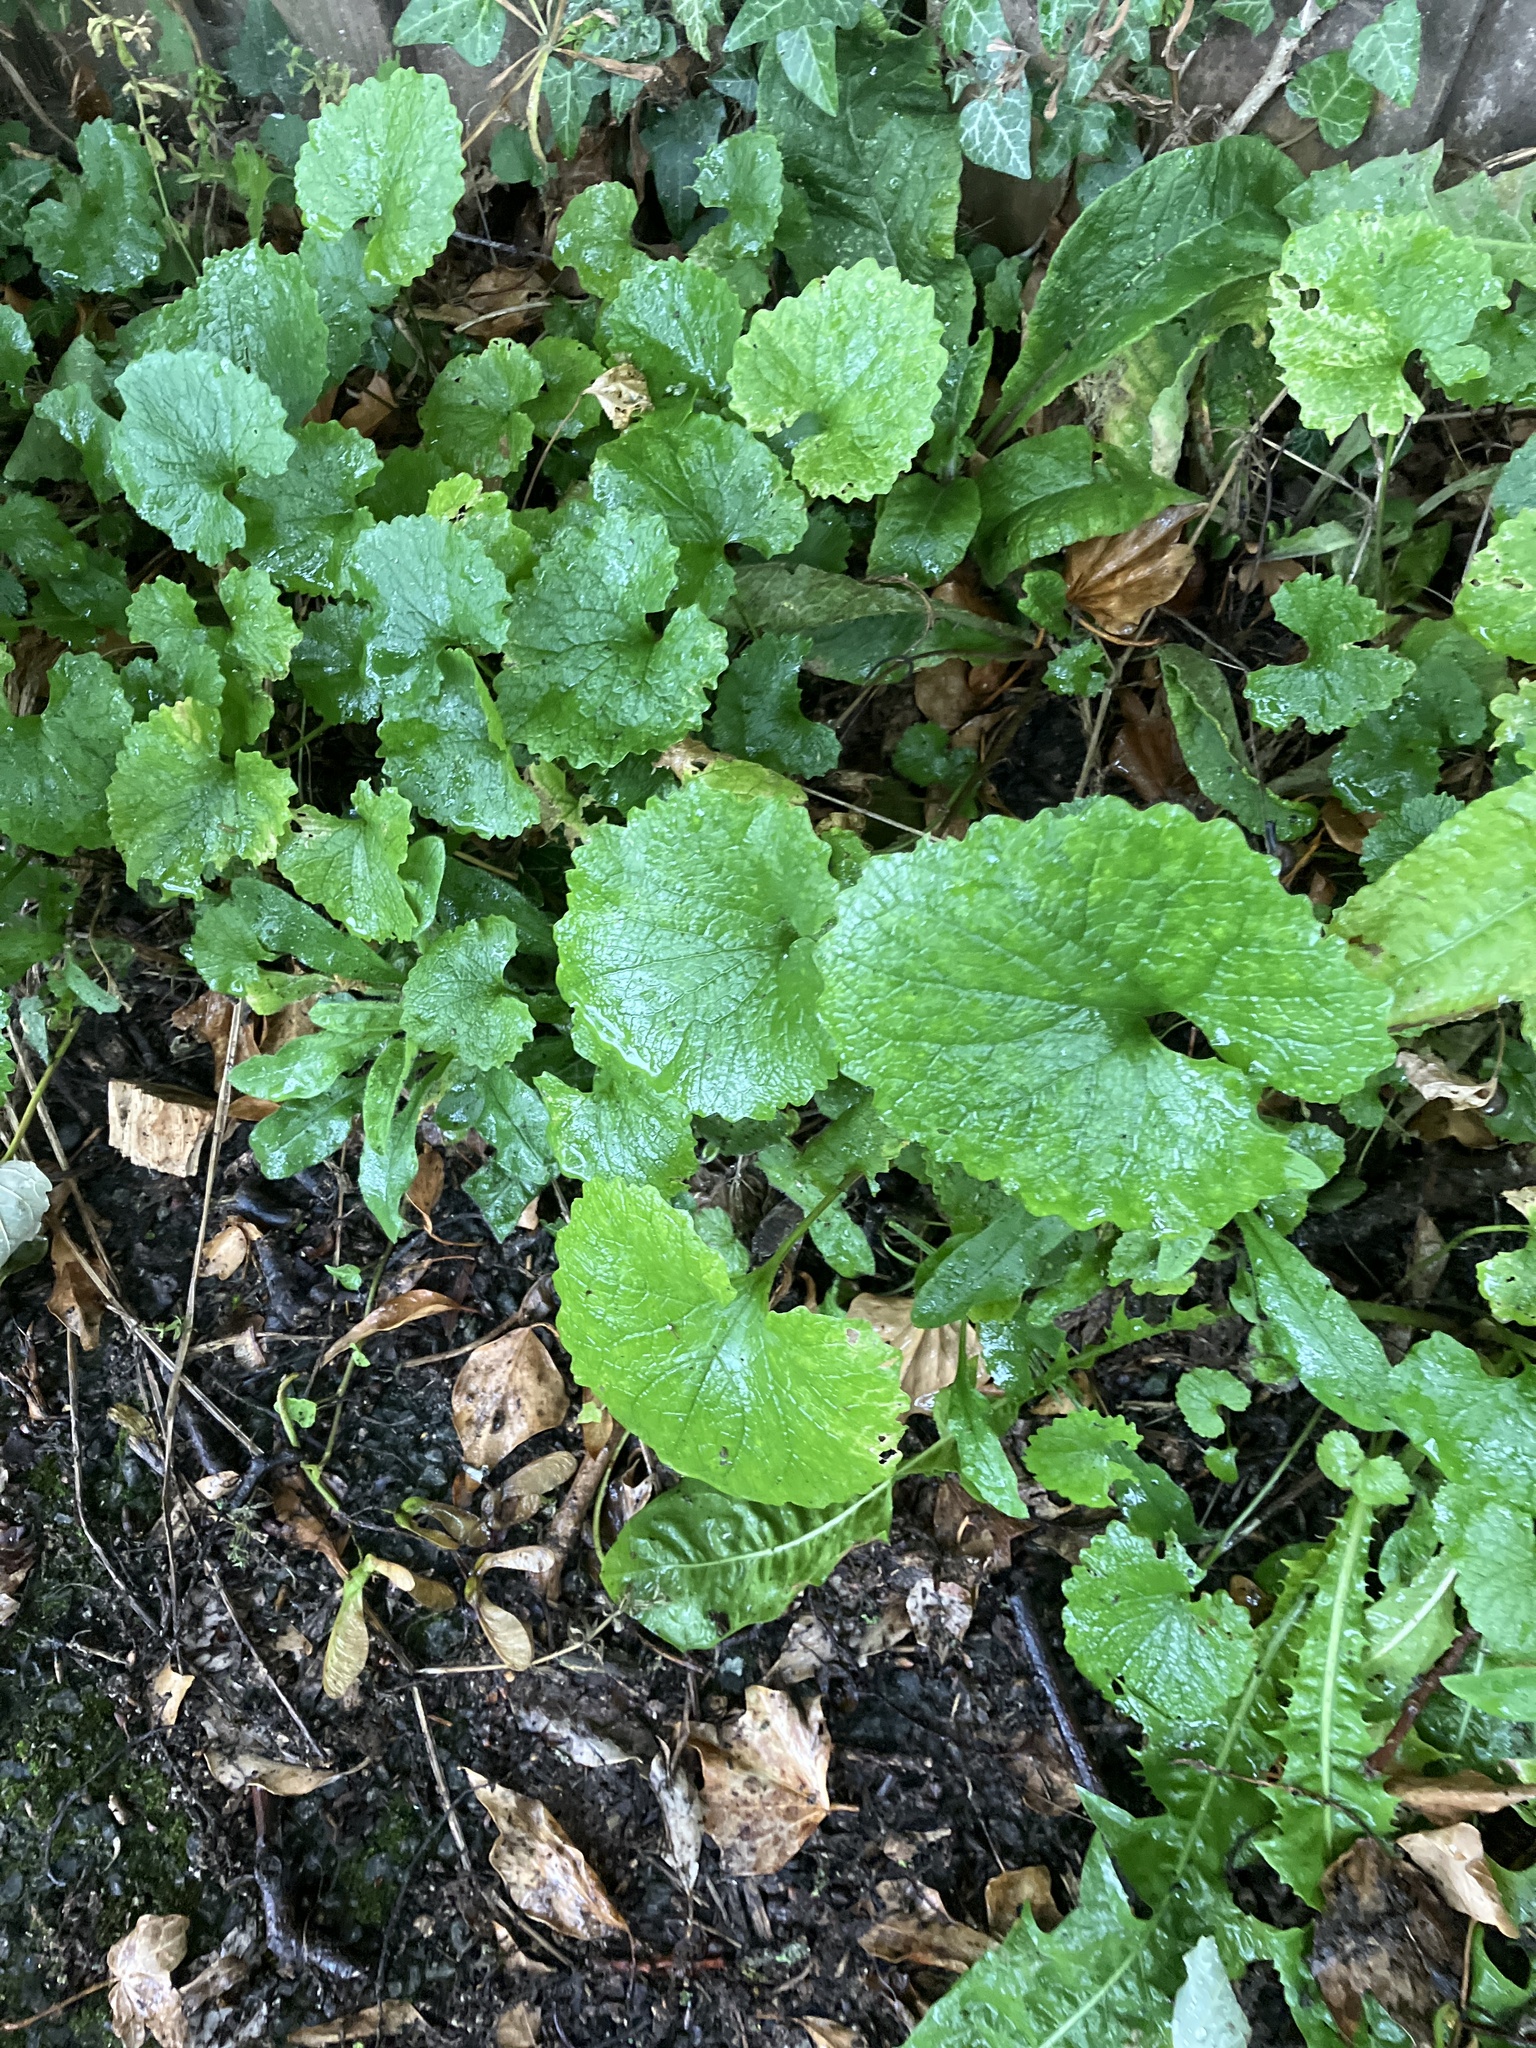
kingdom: Plantae
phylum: Tracheophyta
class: Magnoliopsida
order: Brassicales
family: Brassicaceae
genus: Alliaria
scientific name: Alliaria petiolata
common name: Garlic mustard
